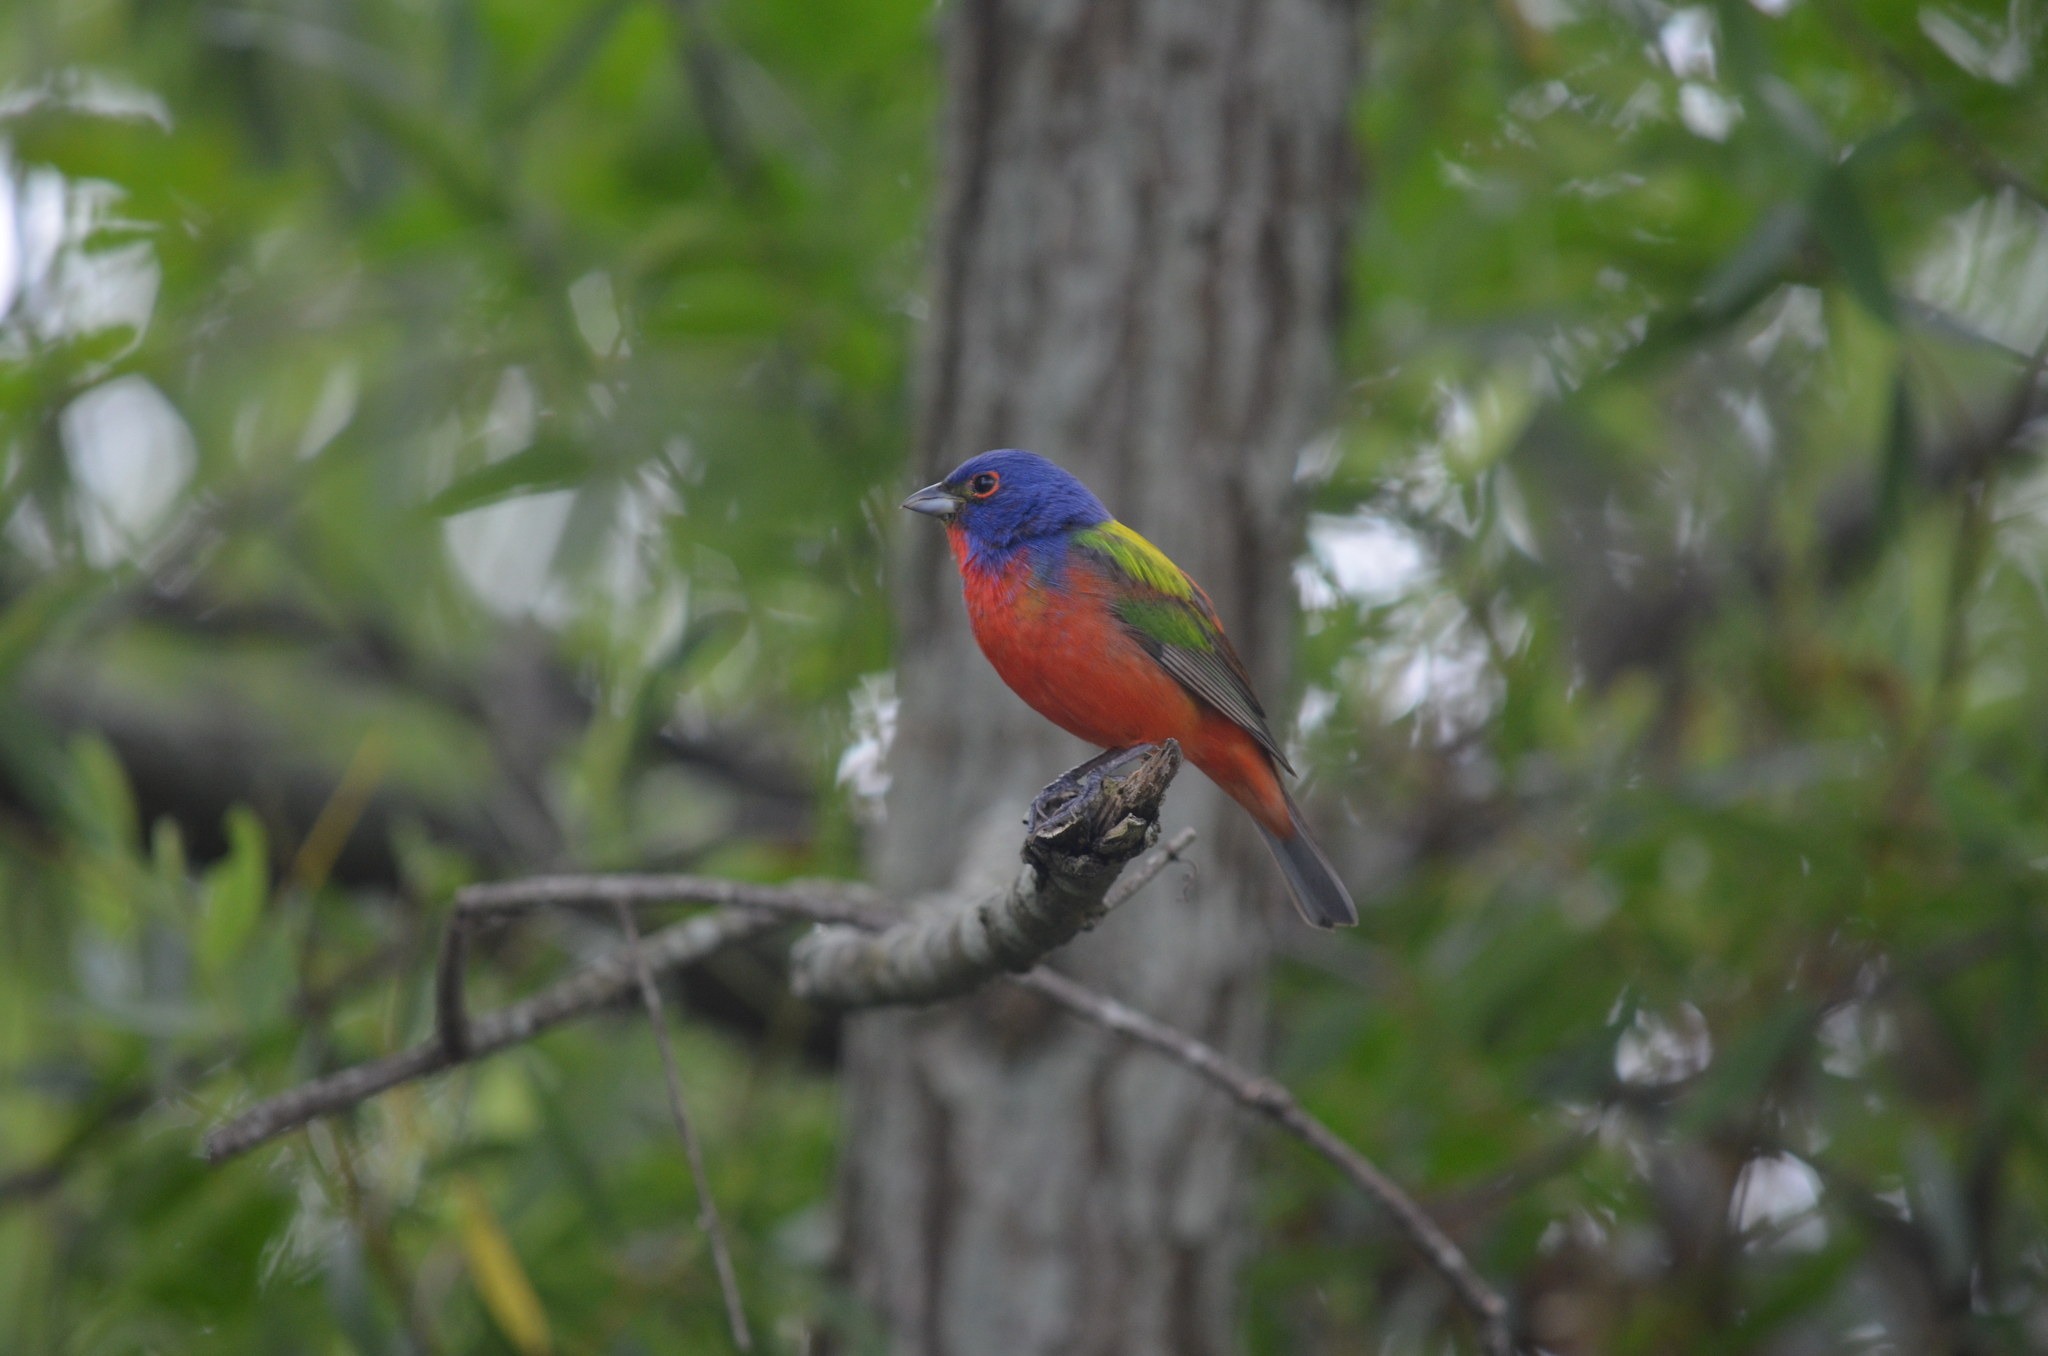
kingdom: Animalia
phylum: Chordata
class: Aves
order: Passeriformes
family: Cardinalidae
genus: Passerina
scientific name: Passerina ciris
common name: Painted bunting
